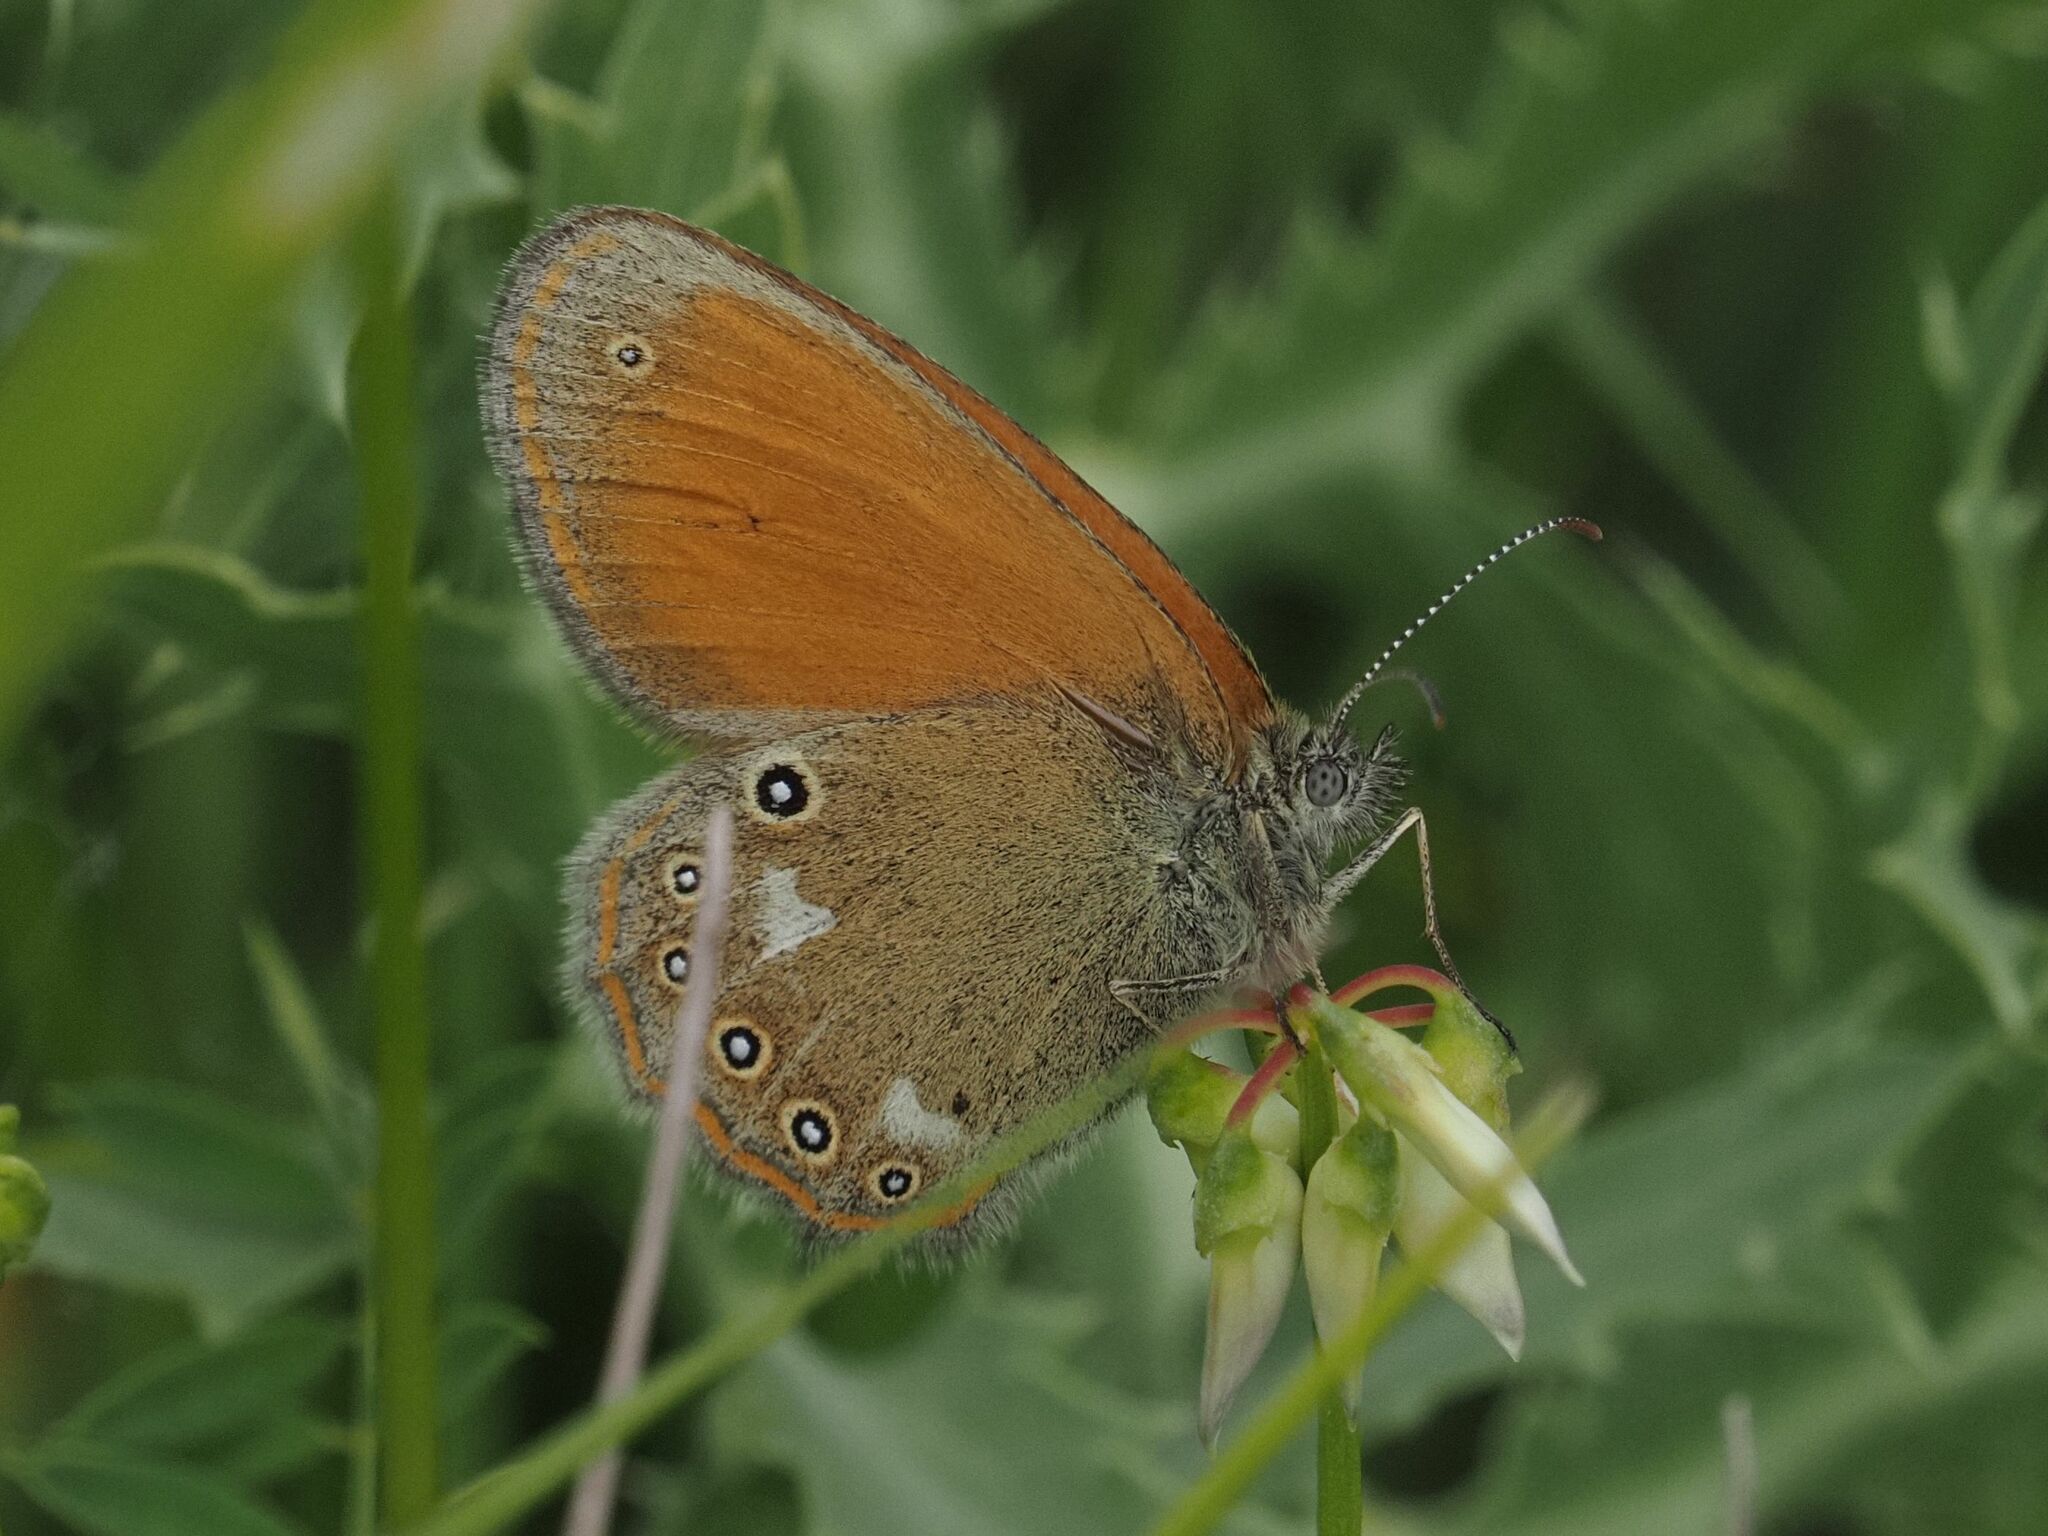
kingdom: Animalia
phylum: Arthropoda
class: Insecta
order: Lepidoptera
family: Nymphalidae
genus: Coenonympha
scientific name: Coenonympha iphis
